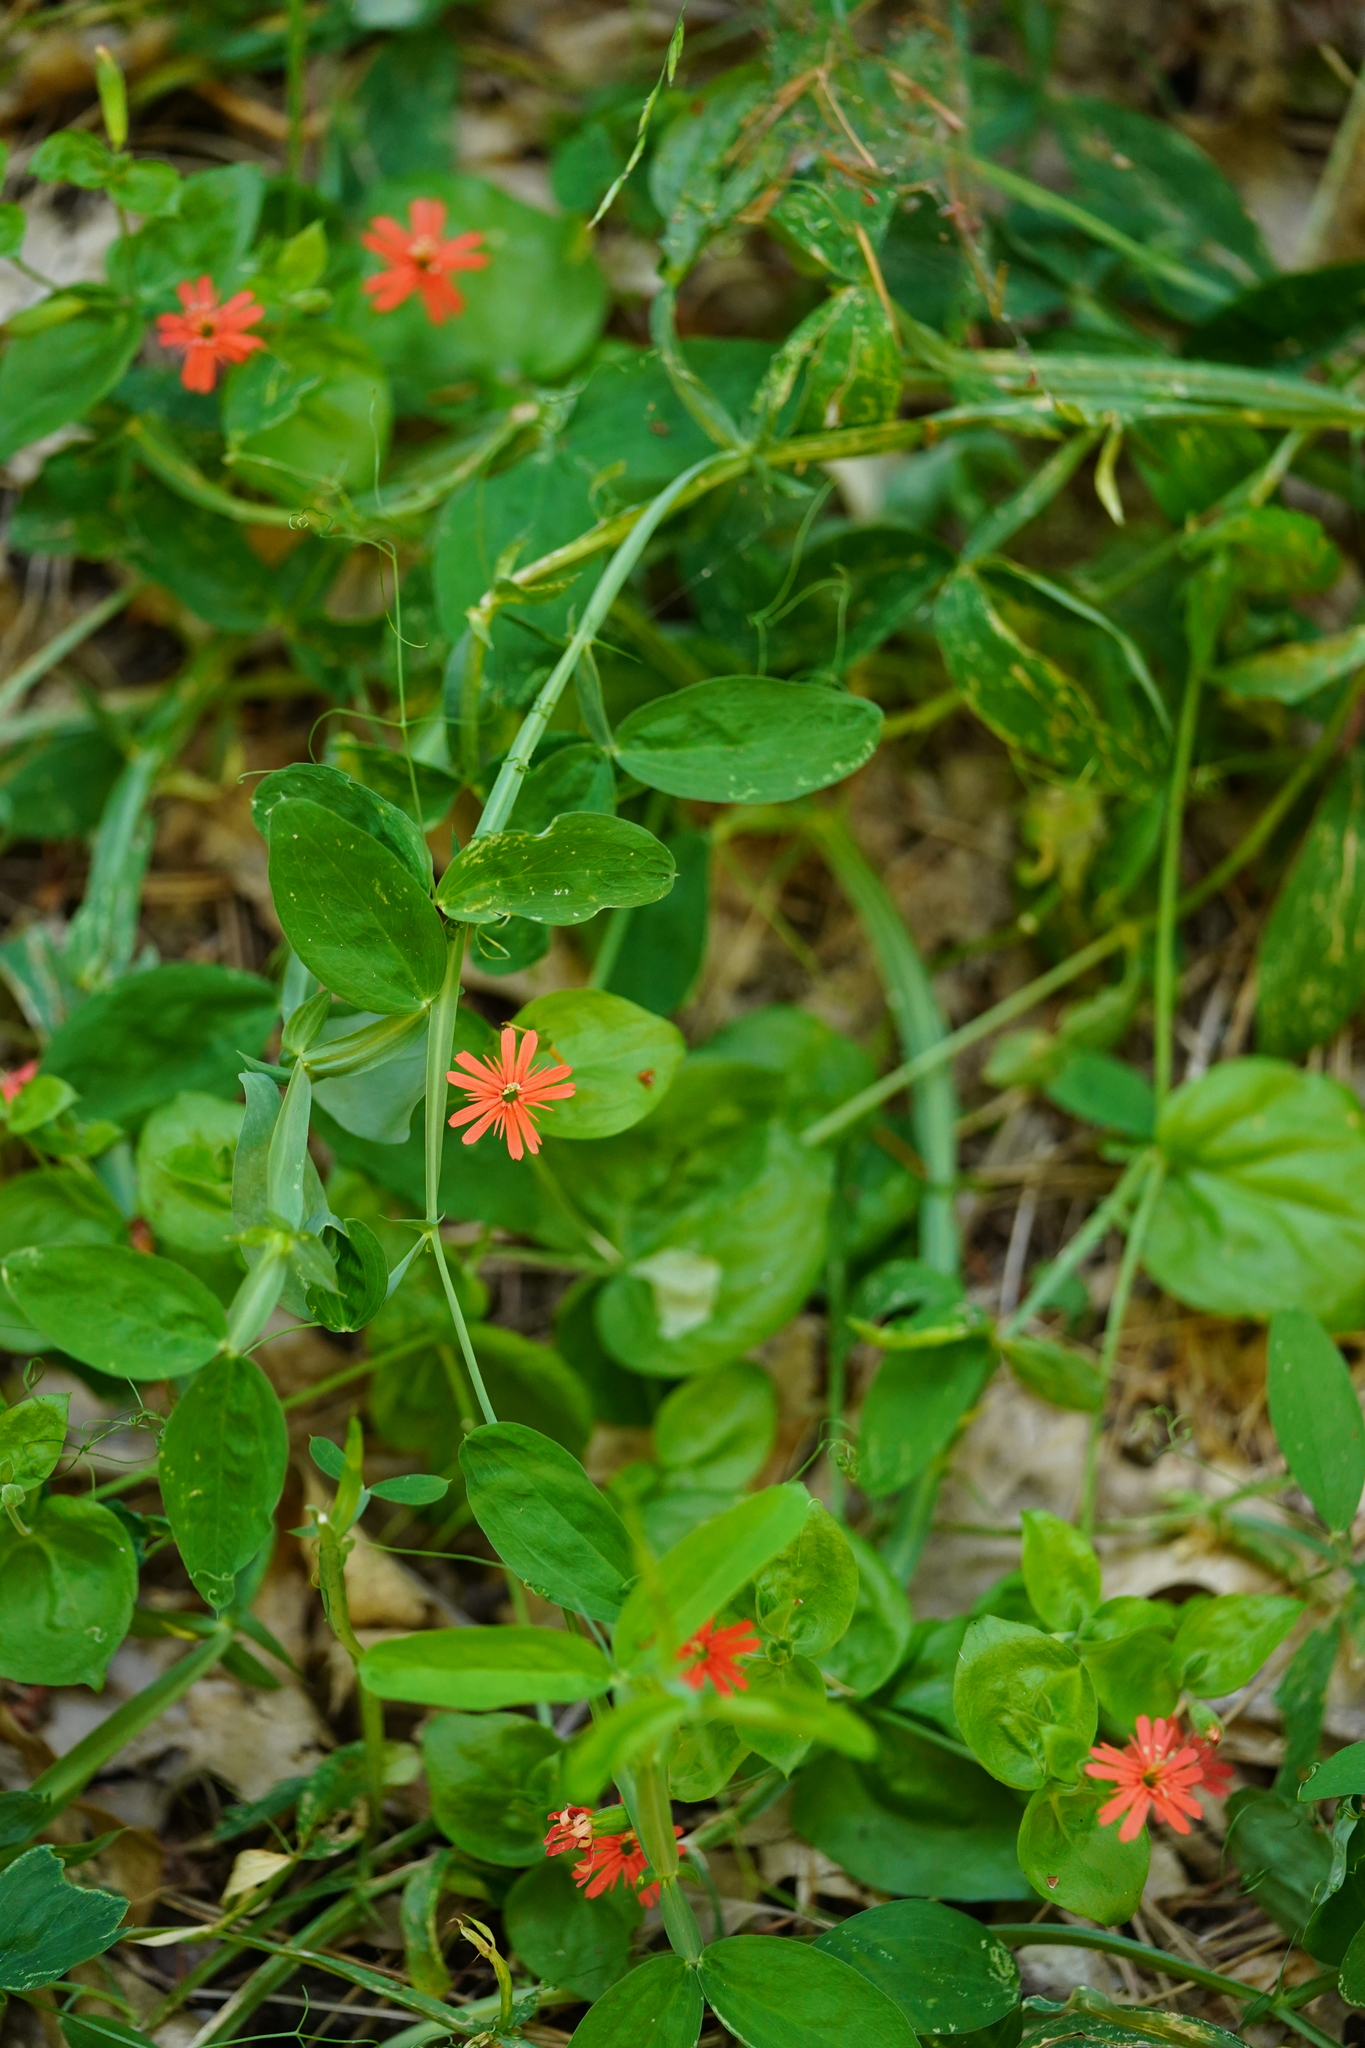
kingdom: Plantae
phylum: Tracheophyta
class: Magnoliopsida
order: Caryophyllales
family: Caryophyllaceae
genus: Silene
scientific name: Silene laciniata
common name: Indian-pink
